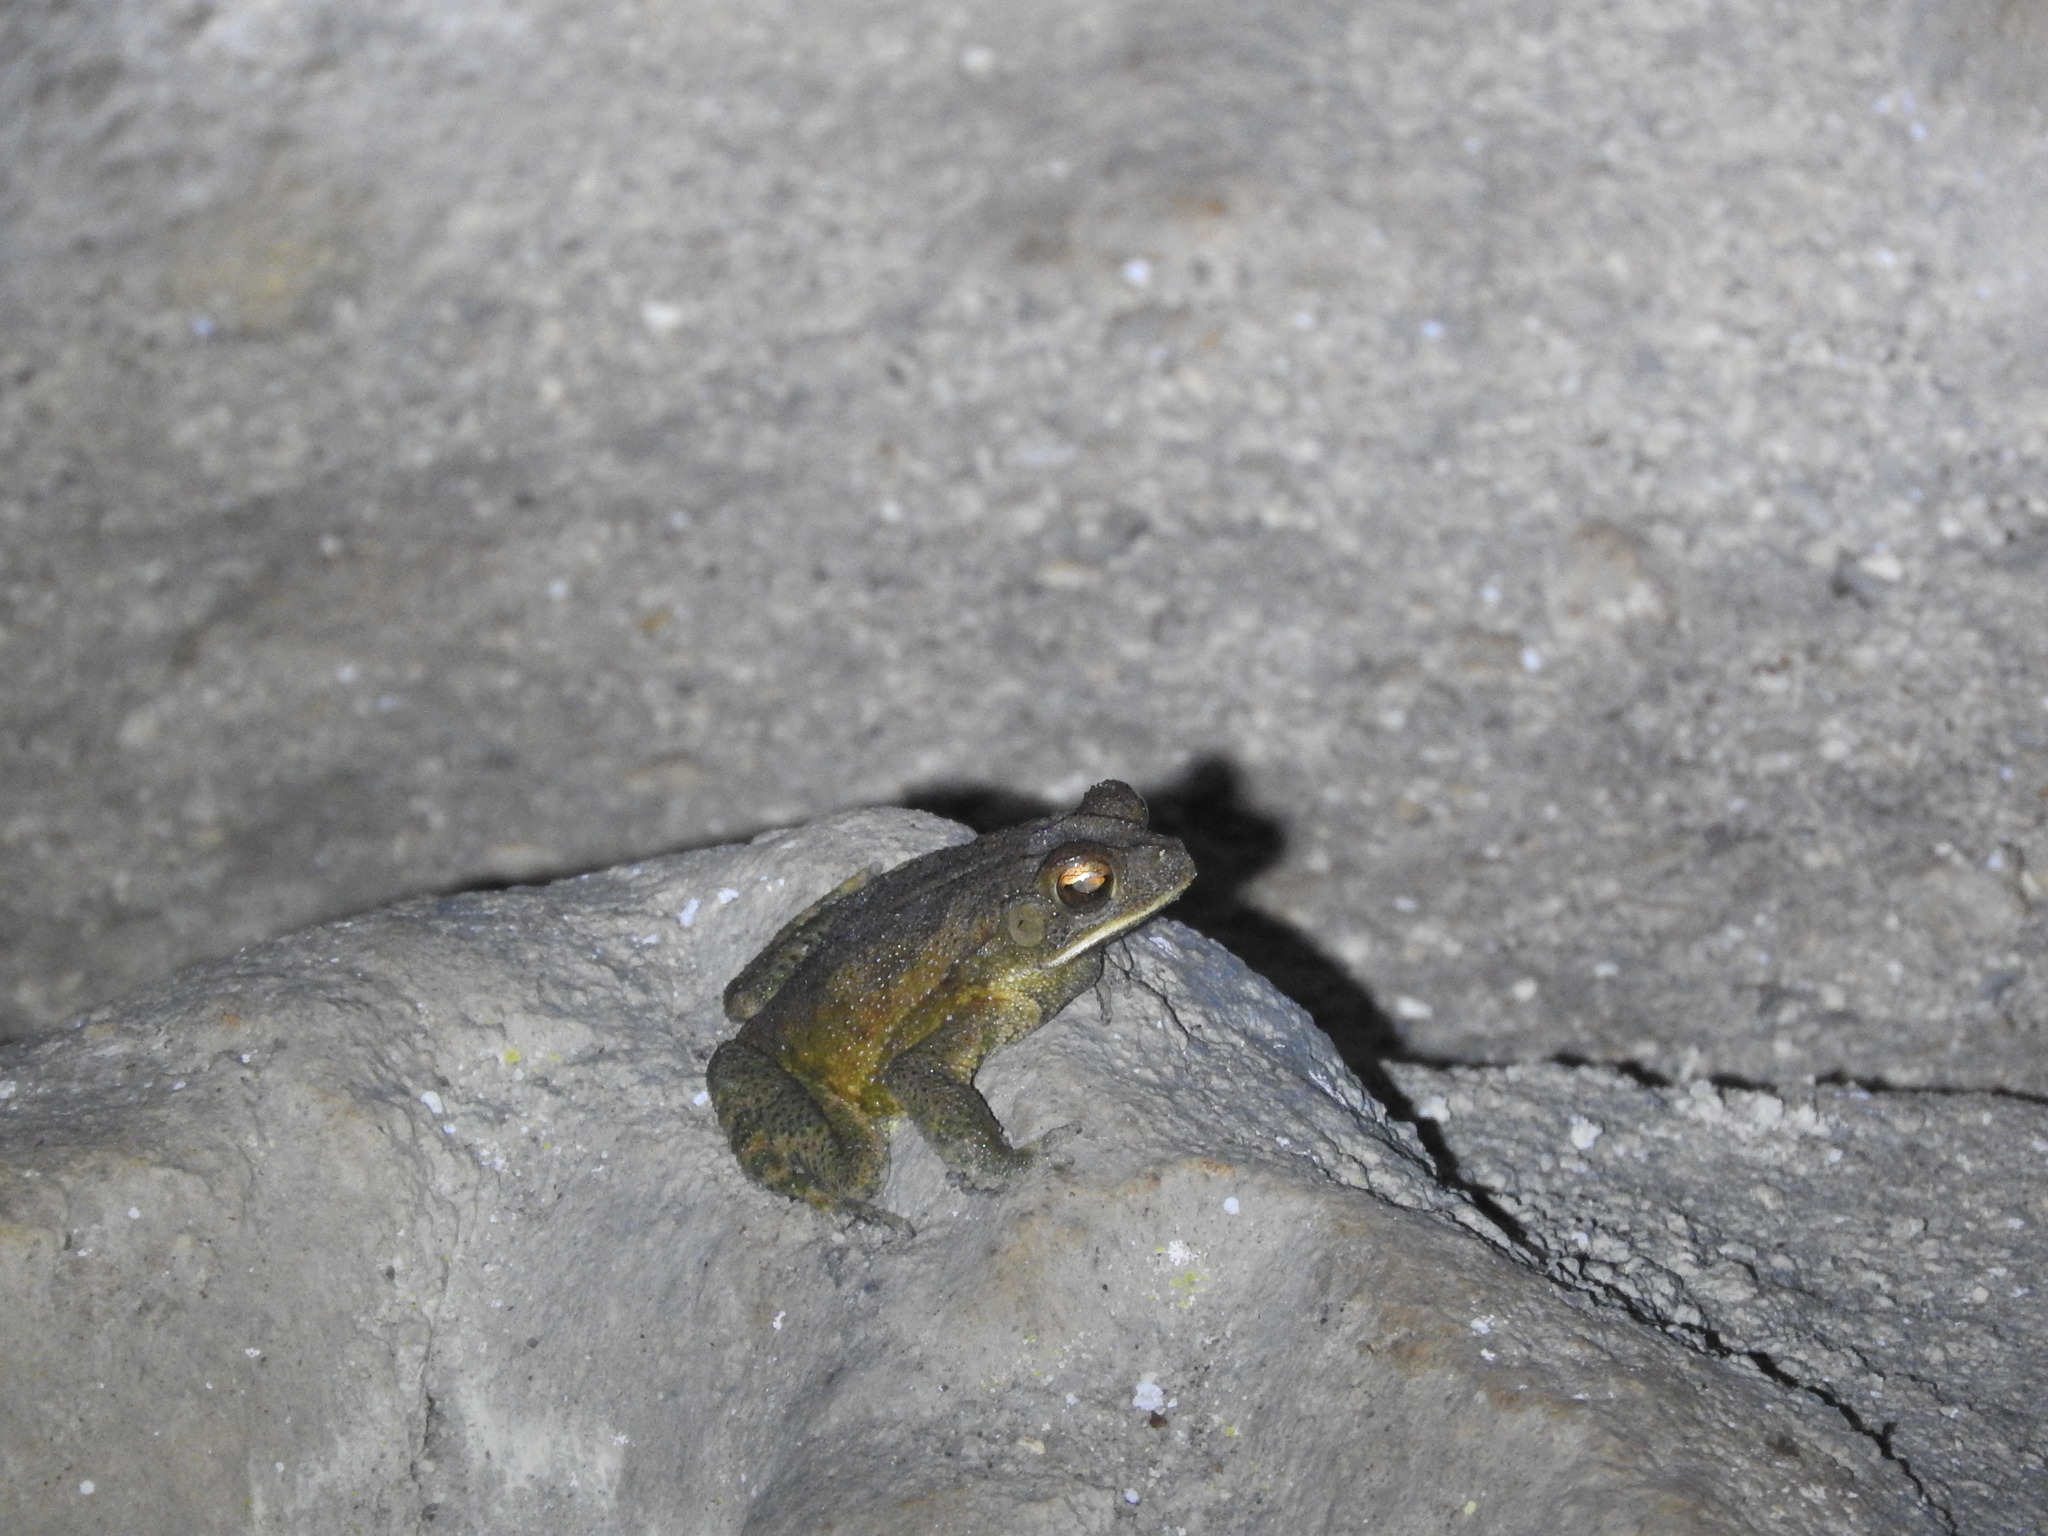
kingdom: Animalia
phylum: Chordata
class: Amphibia
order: Anura
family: Bufonidae
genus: Incilius
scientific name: Incilius valliceps
